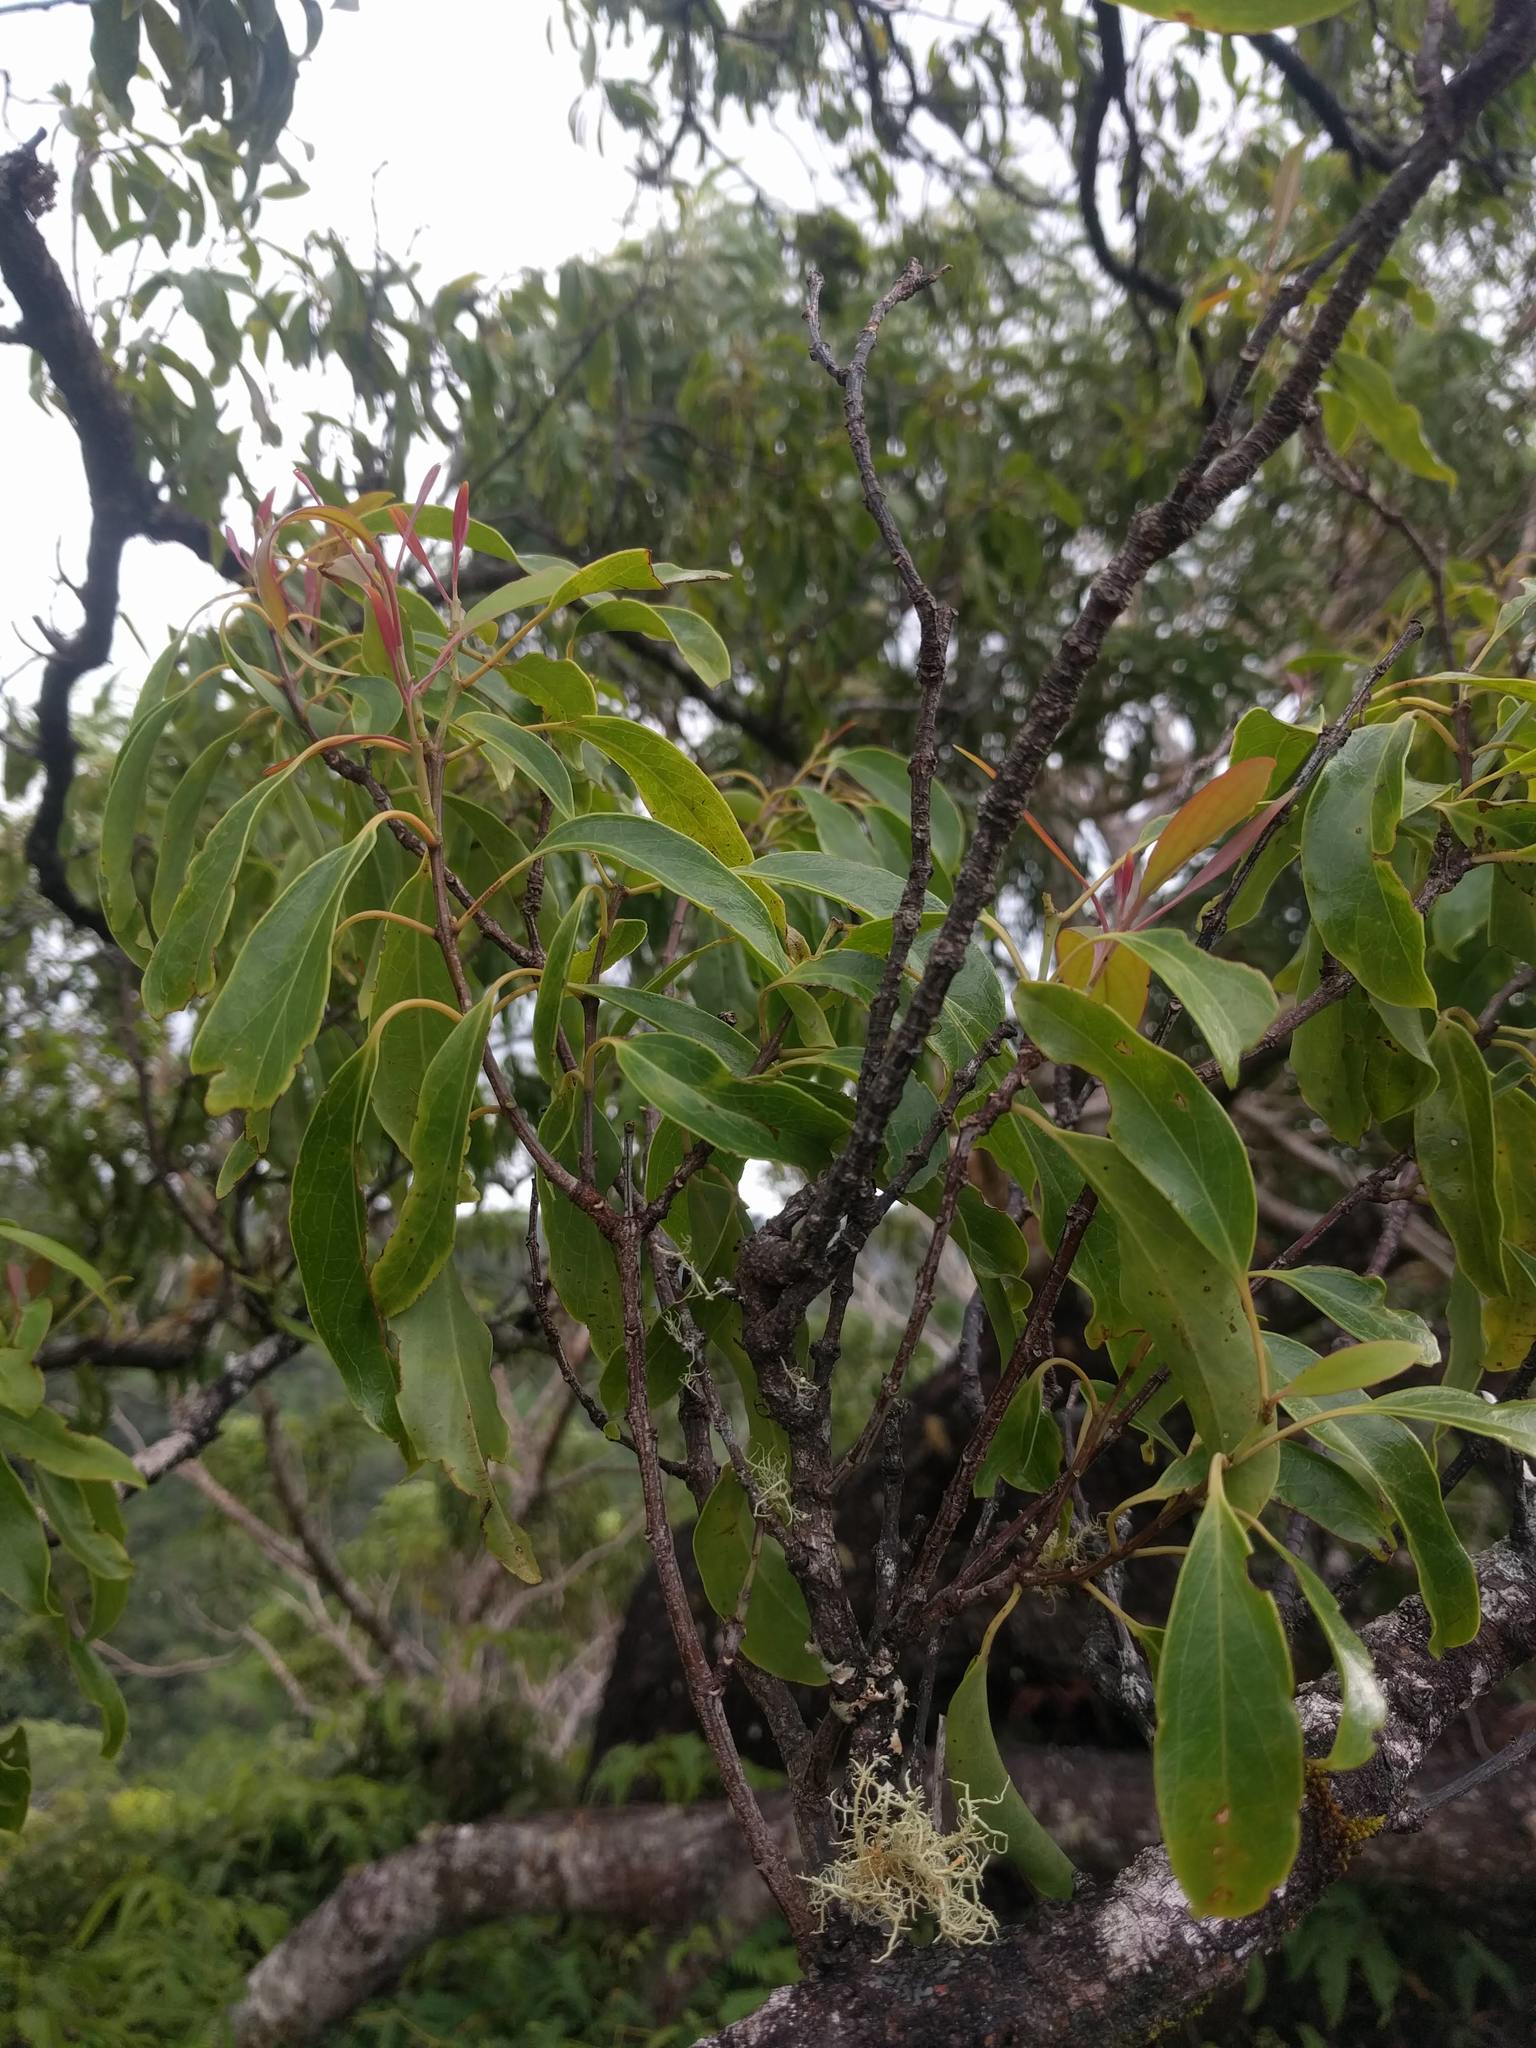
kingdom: Plantae
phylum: Tracheophyta
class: Magnoliopsida
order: Santalales
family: Santalaceae
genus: Santalum
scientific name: Santalum freycinetianum
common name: Lanai sandalwood
